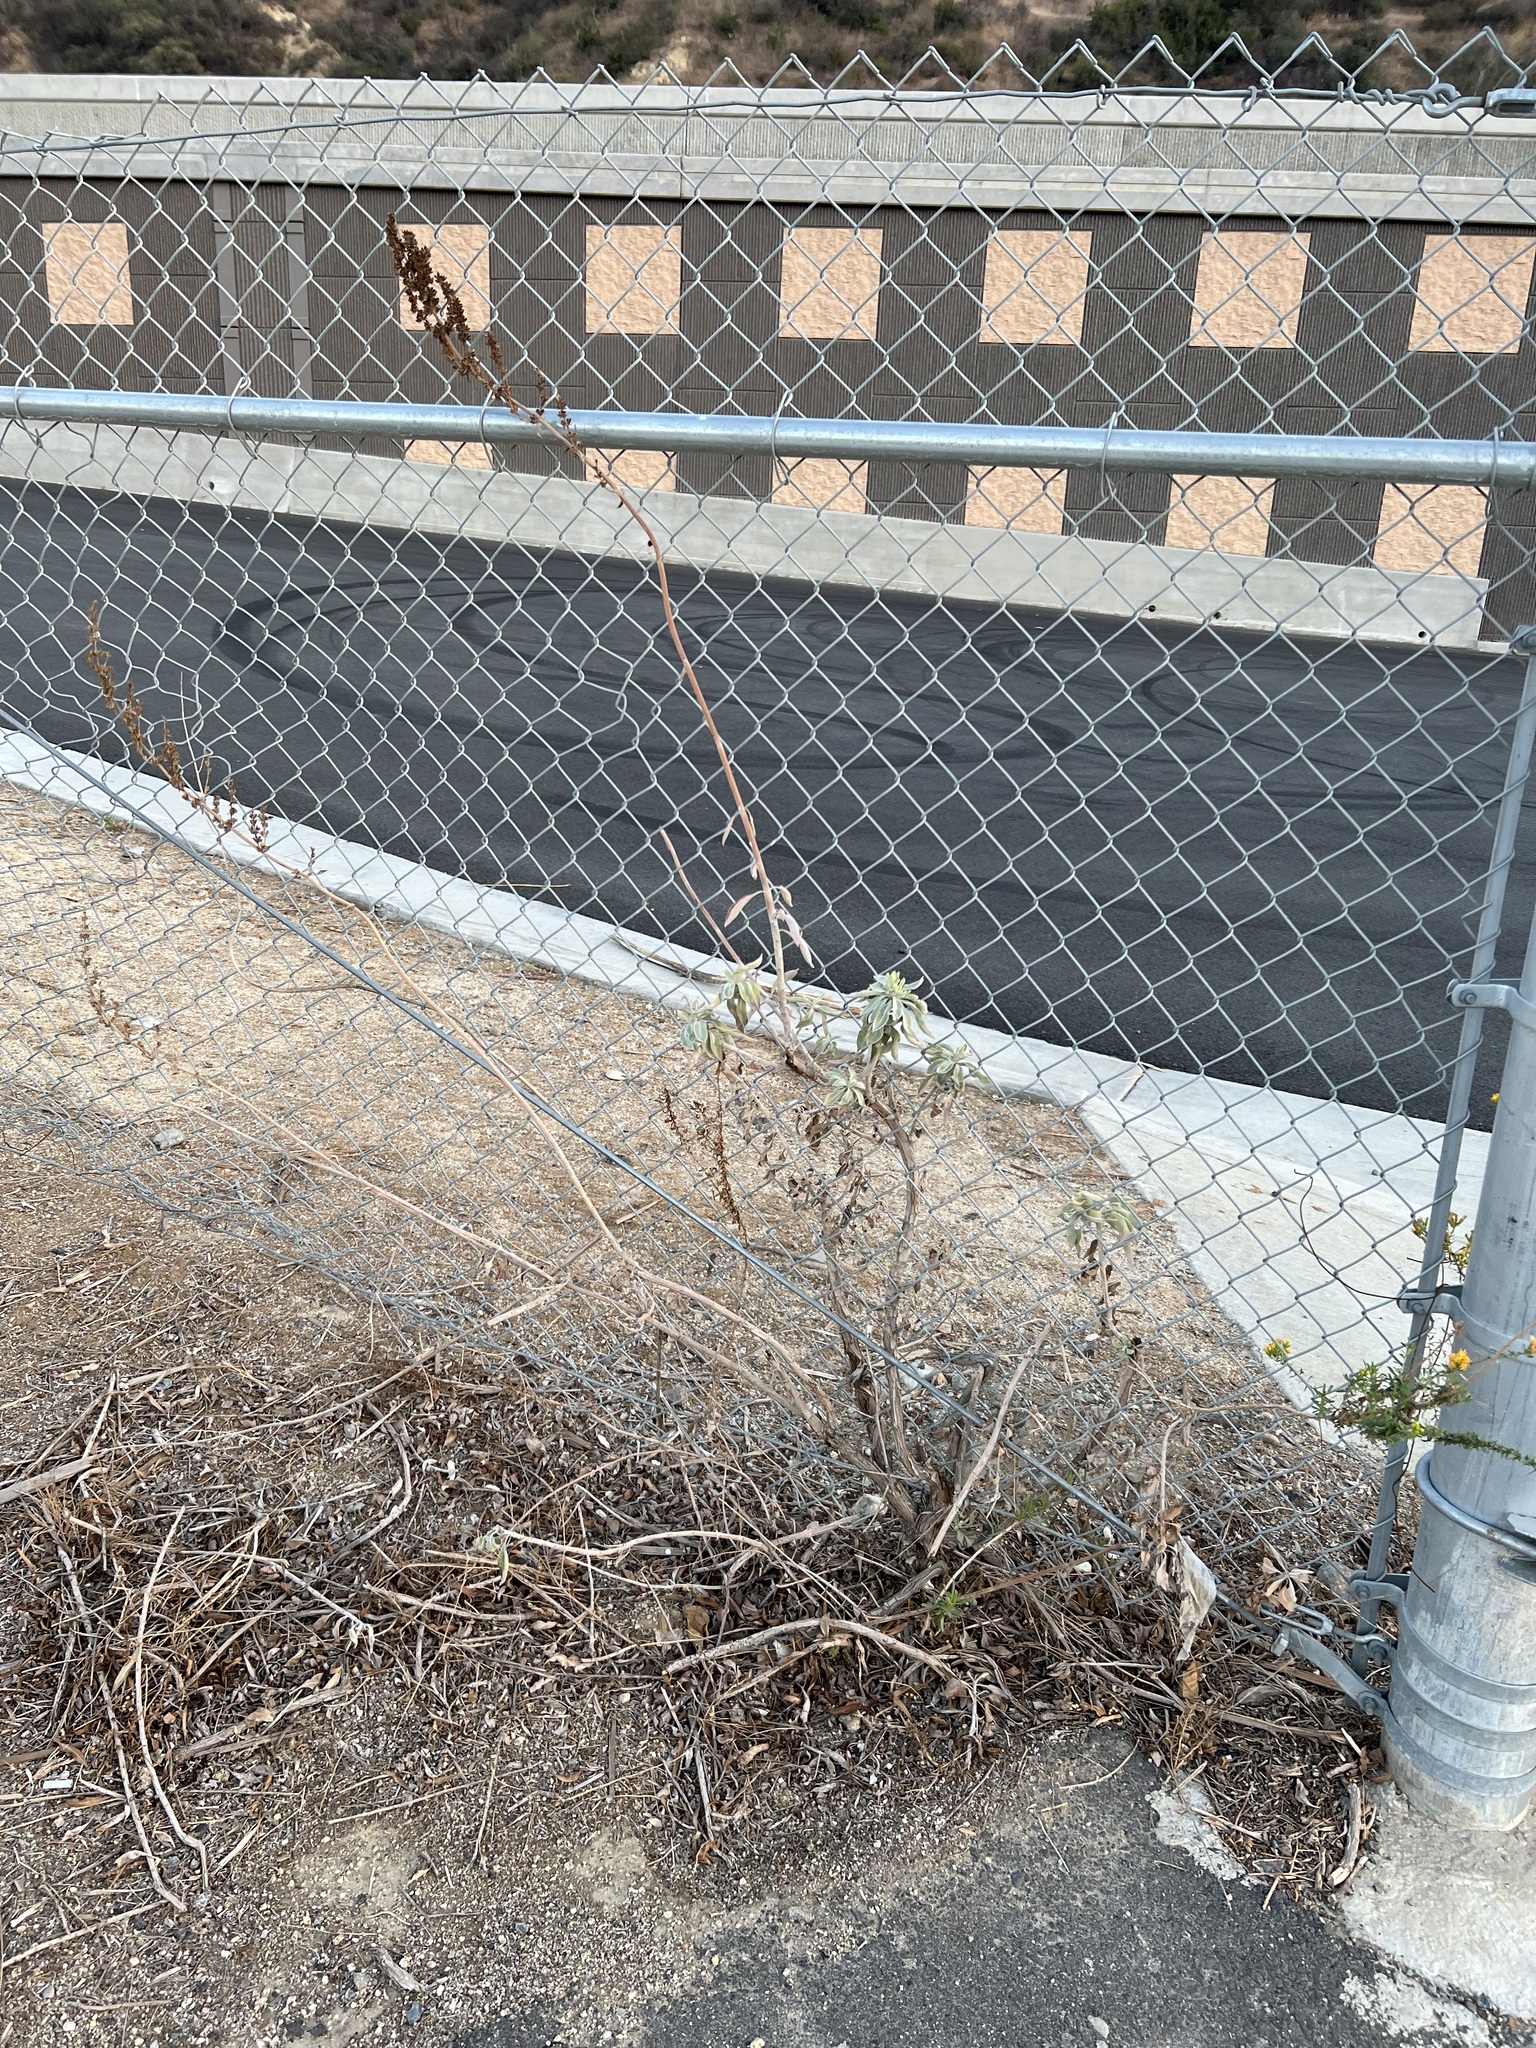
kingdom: Plantae
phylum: Tracheophyta
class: Magnoliopsida
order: Lamiales
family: Lamiaceae
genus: Salvia
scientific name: Salvia apiana
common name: White sage
